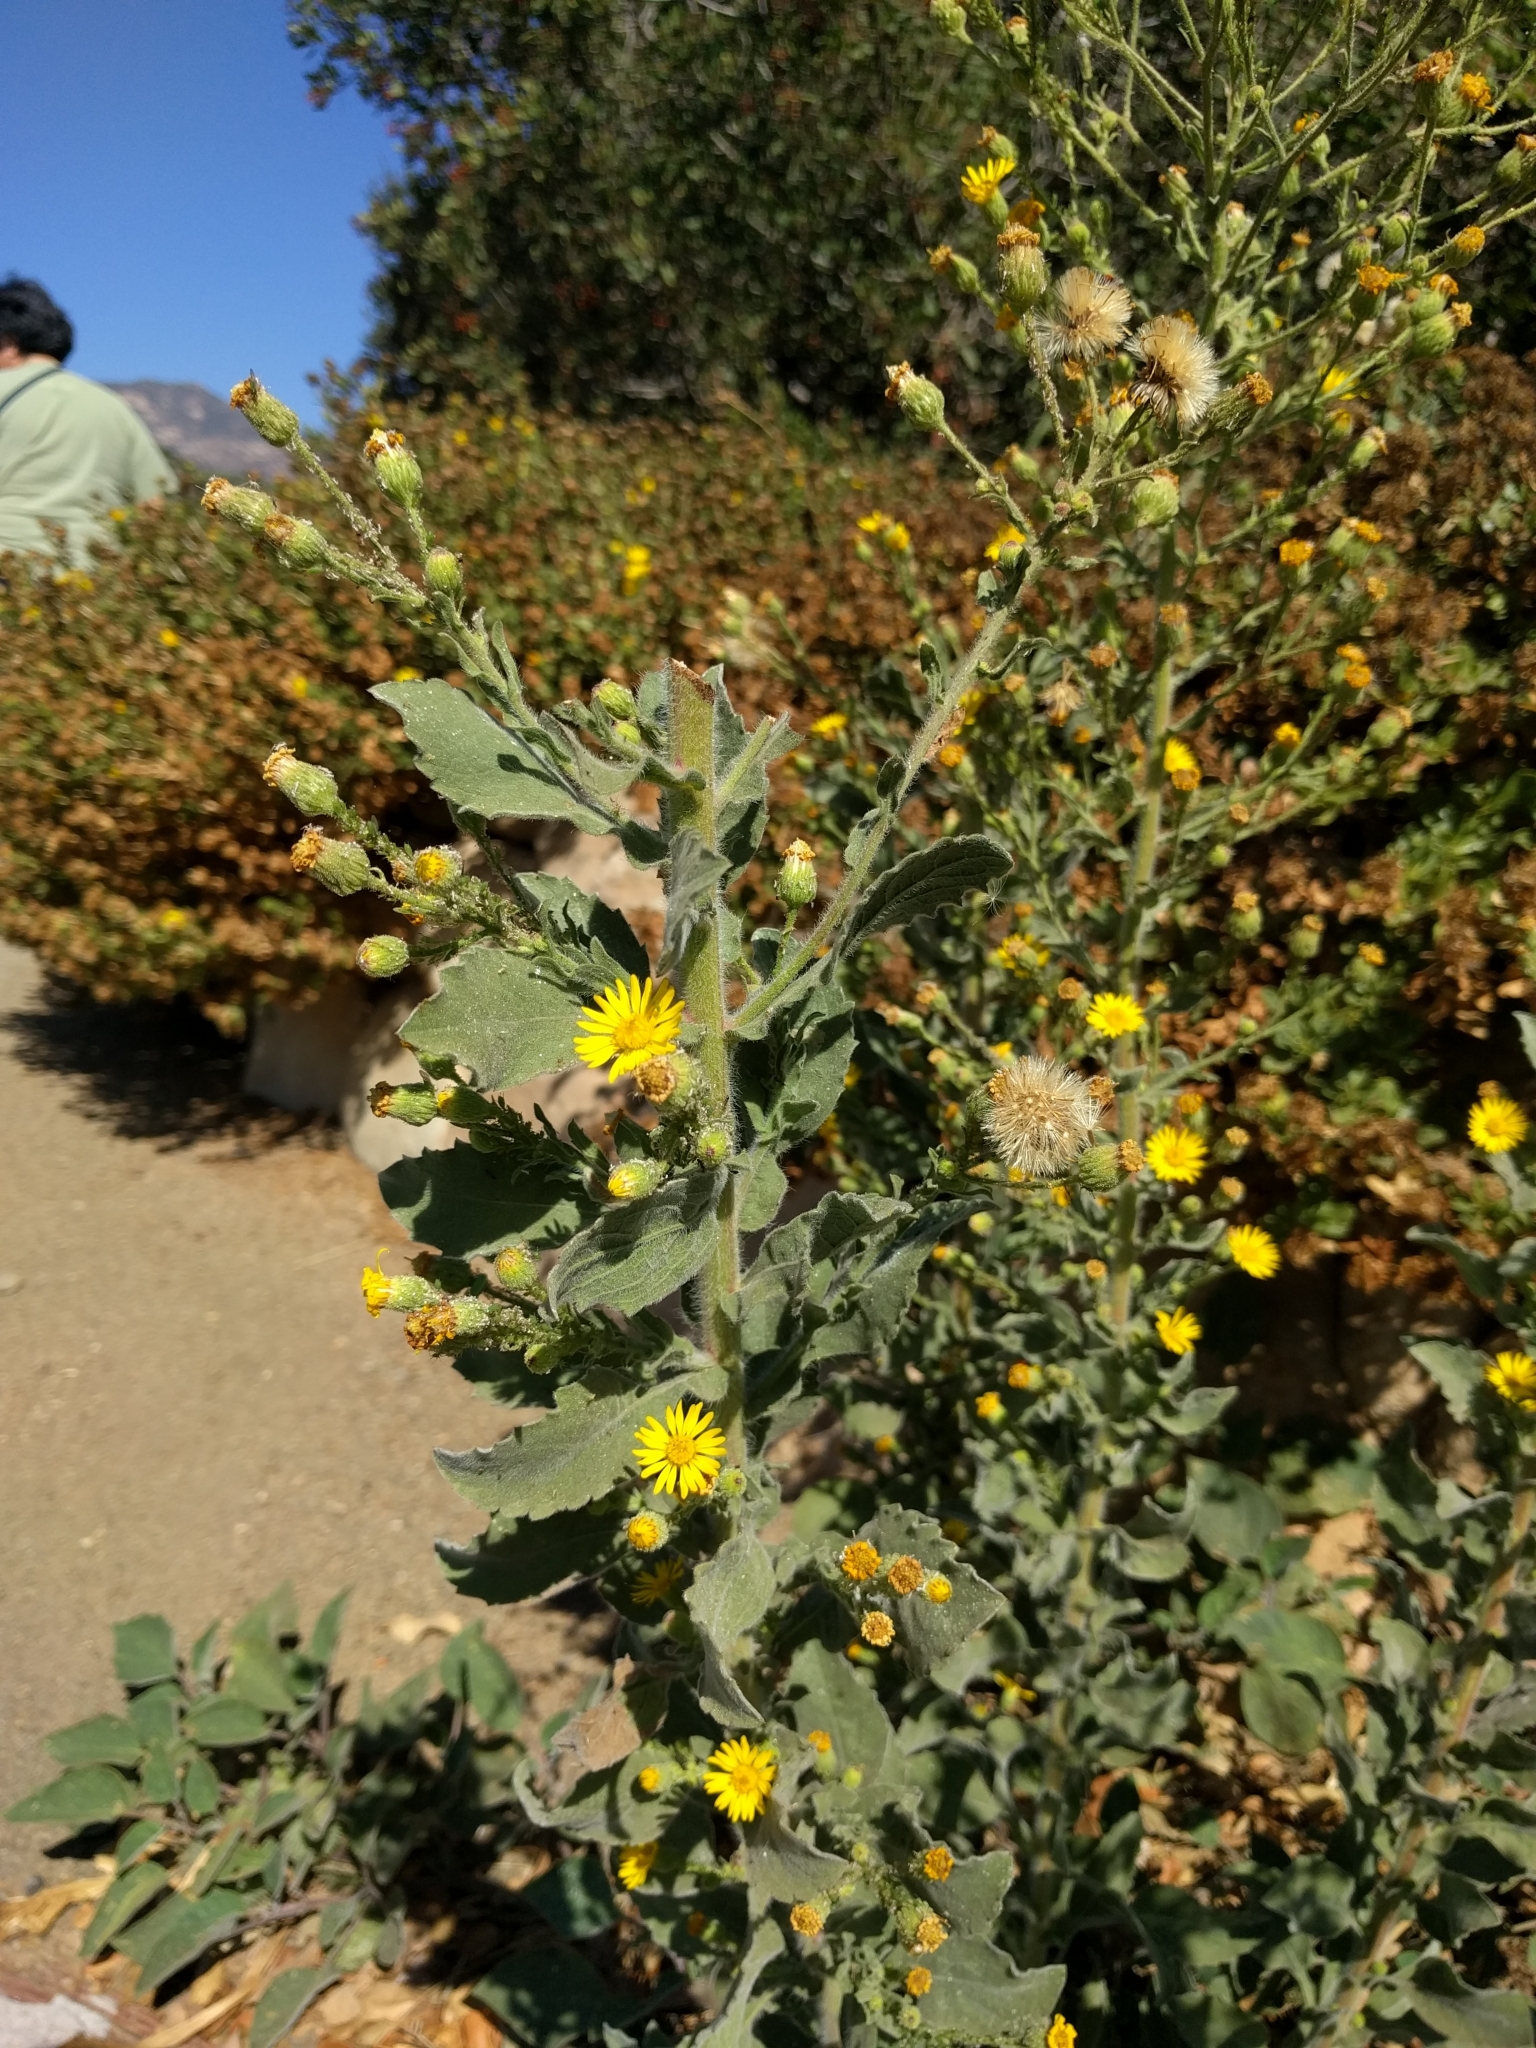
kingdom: Plantae
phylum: Tracheophyta
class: Magnoliopsida
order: Asterales
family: Asteraceae
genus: Heterotheca
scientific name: Heterotheca grandiflora
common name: Telegraphweed
